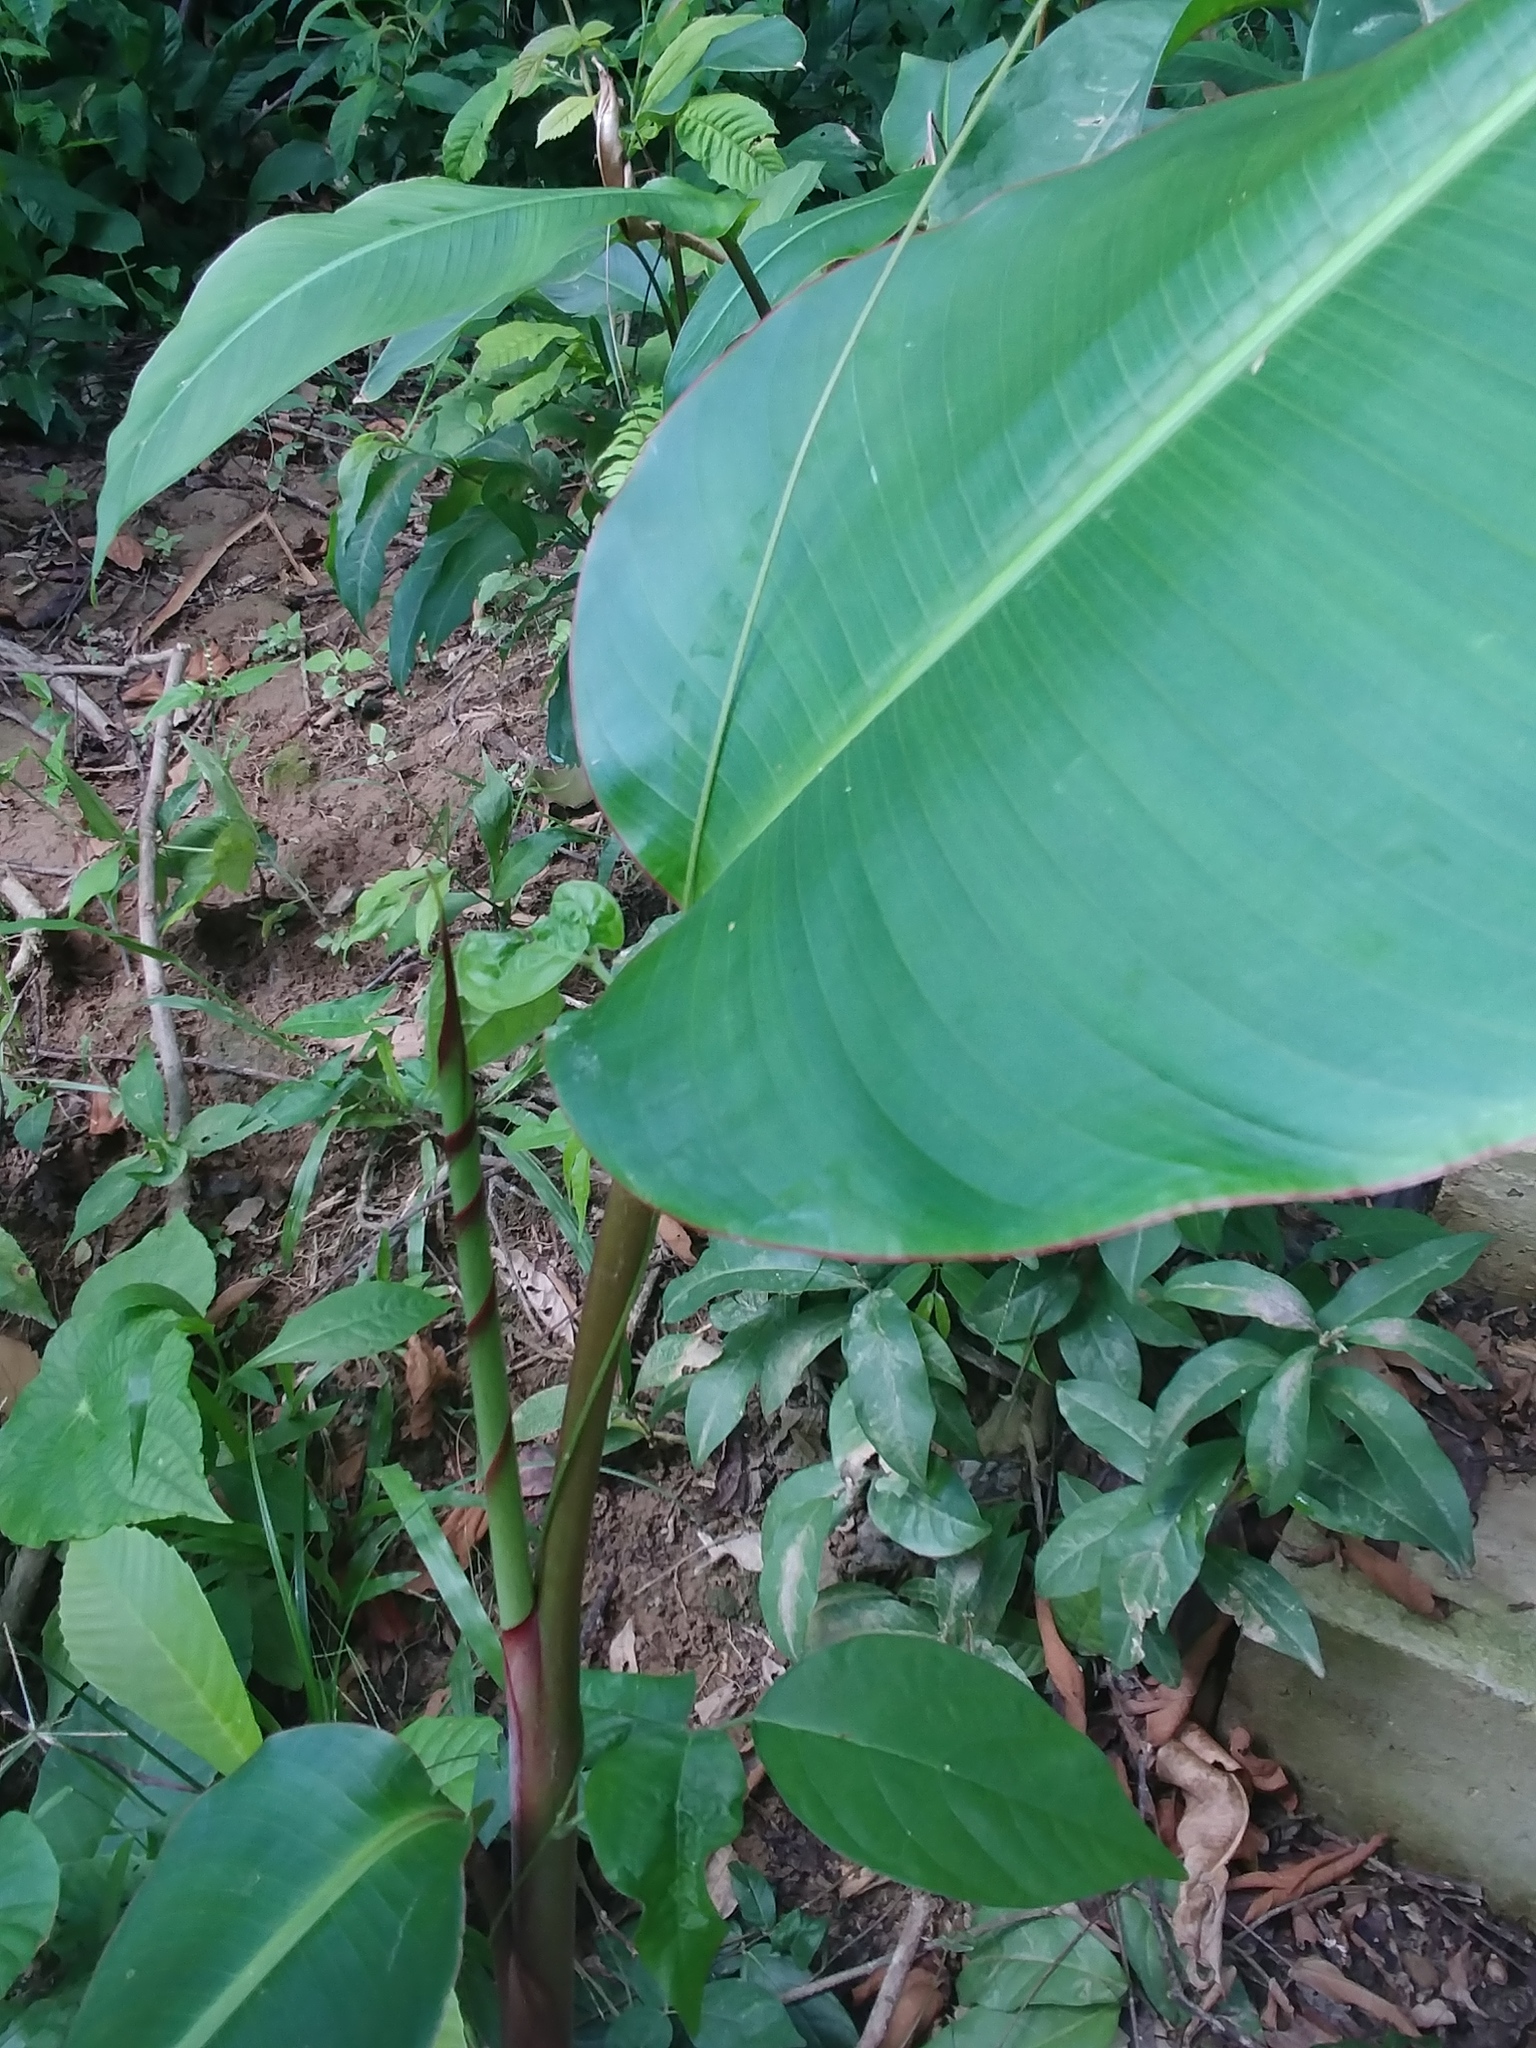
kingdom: Plantae
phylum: Tracheophyta
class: Liliopsida
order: Zingiberales
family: Heliconiaceae
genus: Heliconia
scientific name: Heliconia latispatha
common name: Expanded lobsterclaw
